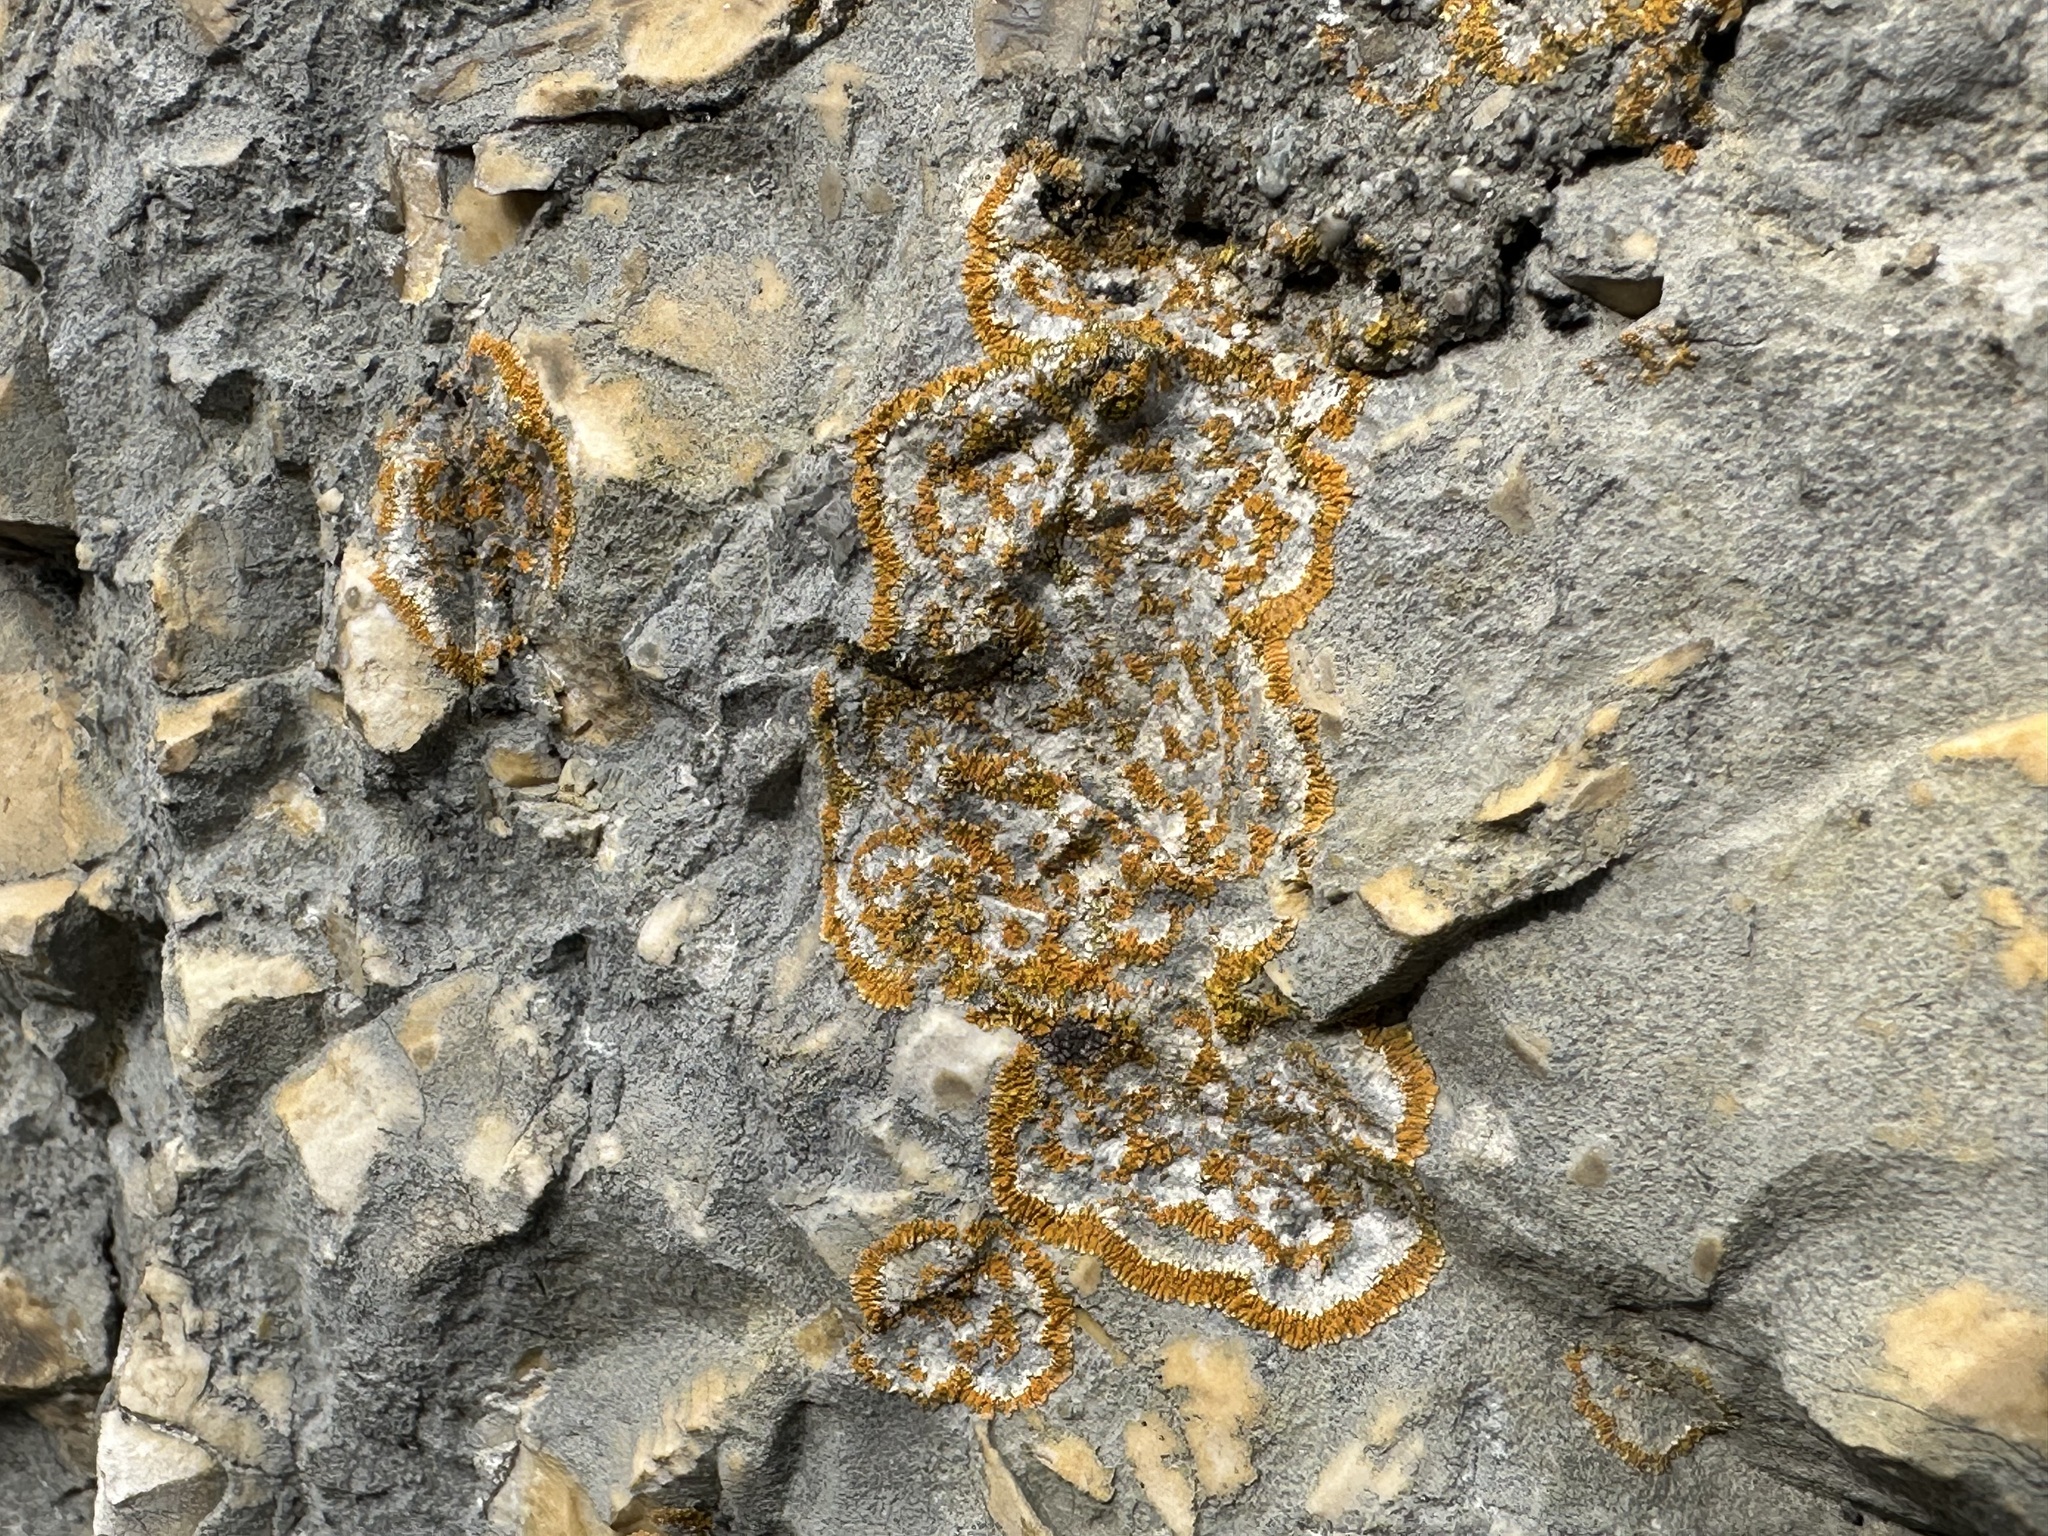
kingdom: Fungi
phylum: Ascomycota
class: Lecanoromycetes
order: Teloschistales
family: Teloschistaceae
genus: Leproplaca
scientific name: Leproplaca cirrochroa
